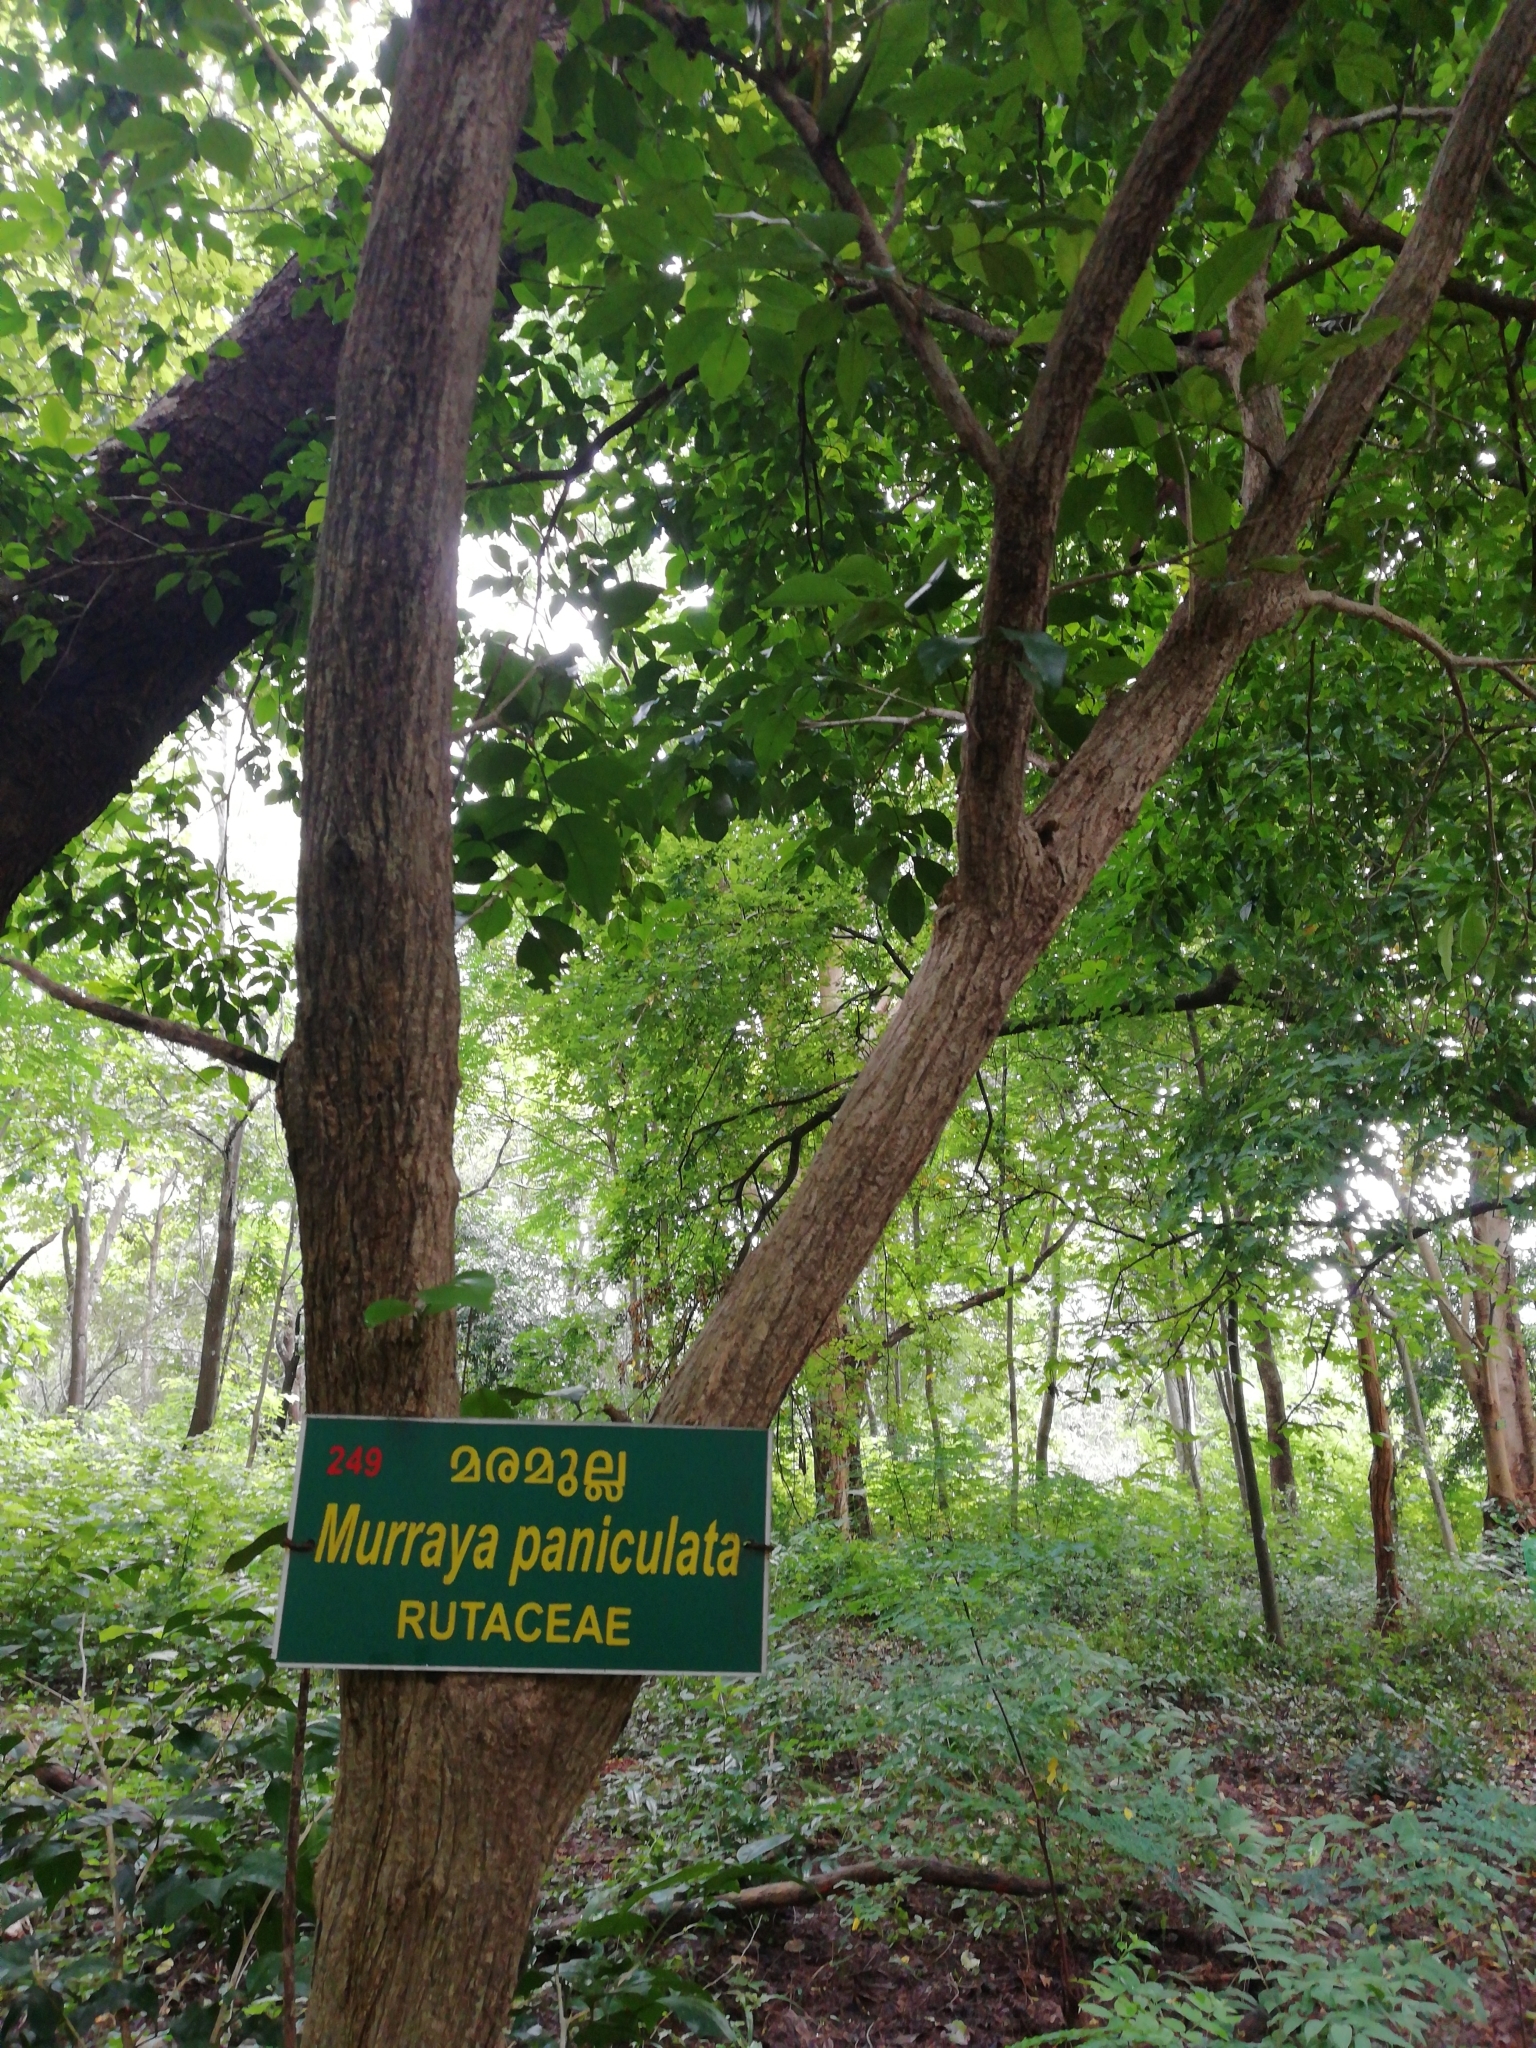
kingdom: Plantae
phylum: Tracheophyta
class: Magnoliopsida
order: Sapindales
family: Rutaceae
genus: Murraya
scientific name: Murraya paniculata
